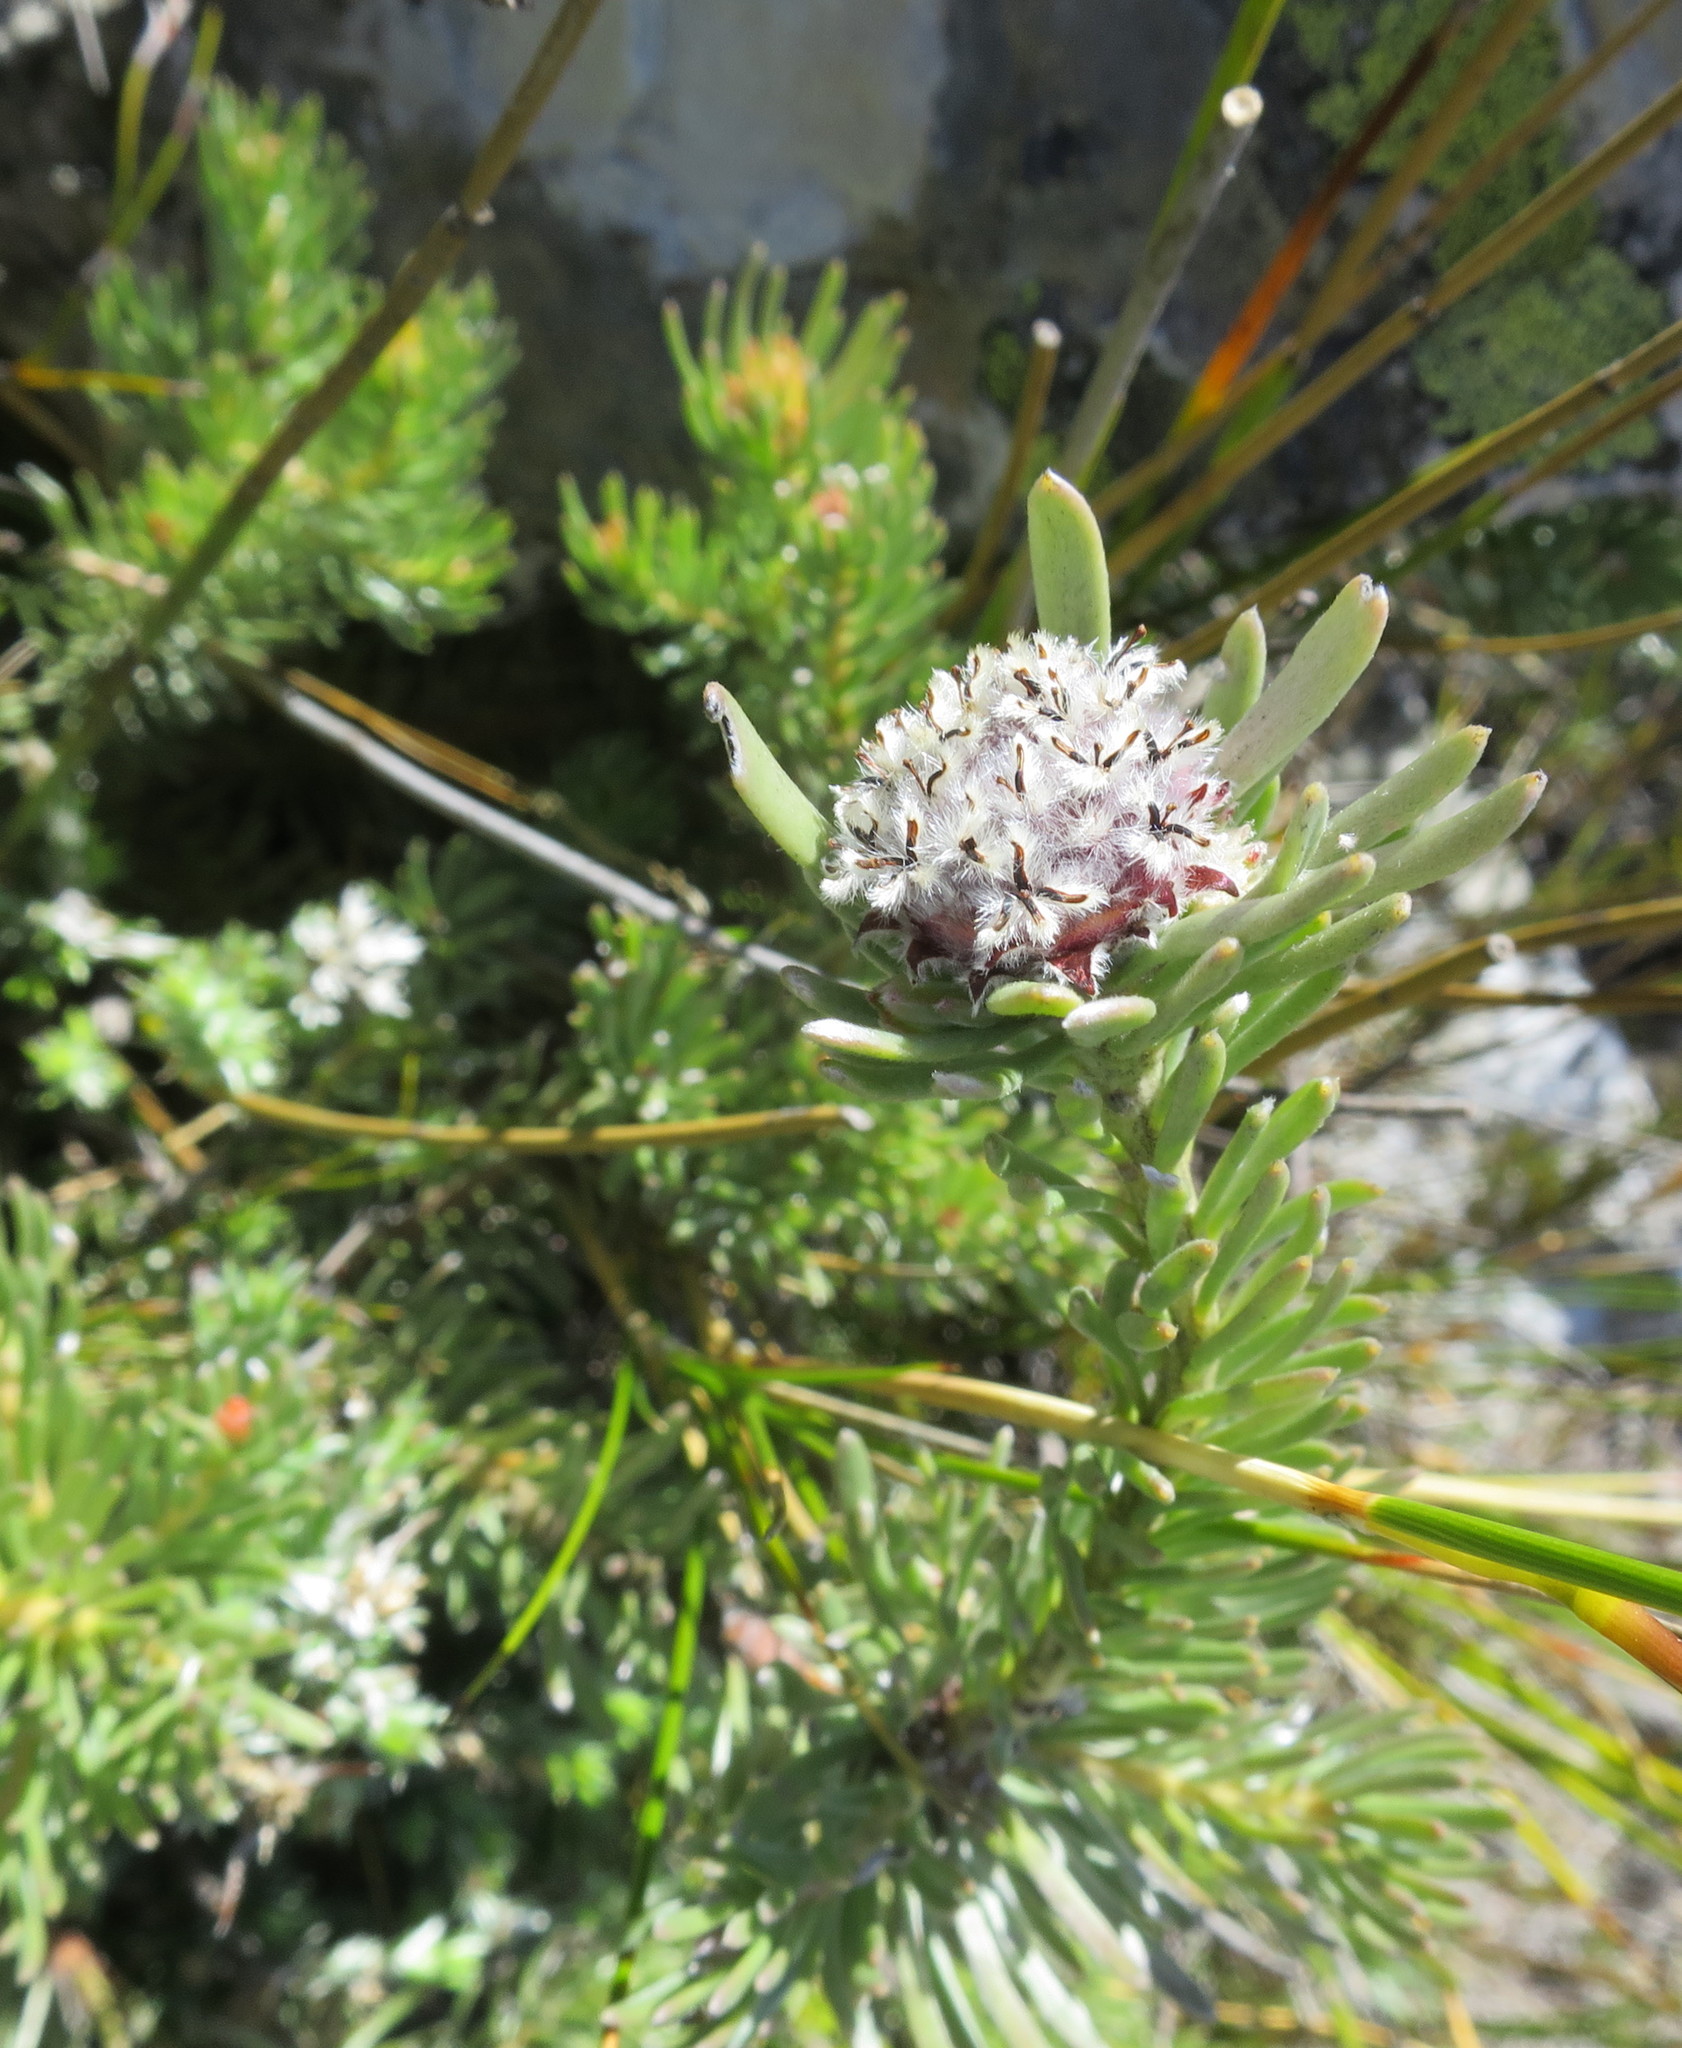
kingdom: Plantae
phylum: Tracheophyta
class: Magnoliopsida
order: Proteales
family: Proteaceae
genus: Leucadendron
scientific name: Leucadendron singulare
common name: Kammanassie conebush
